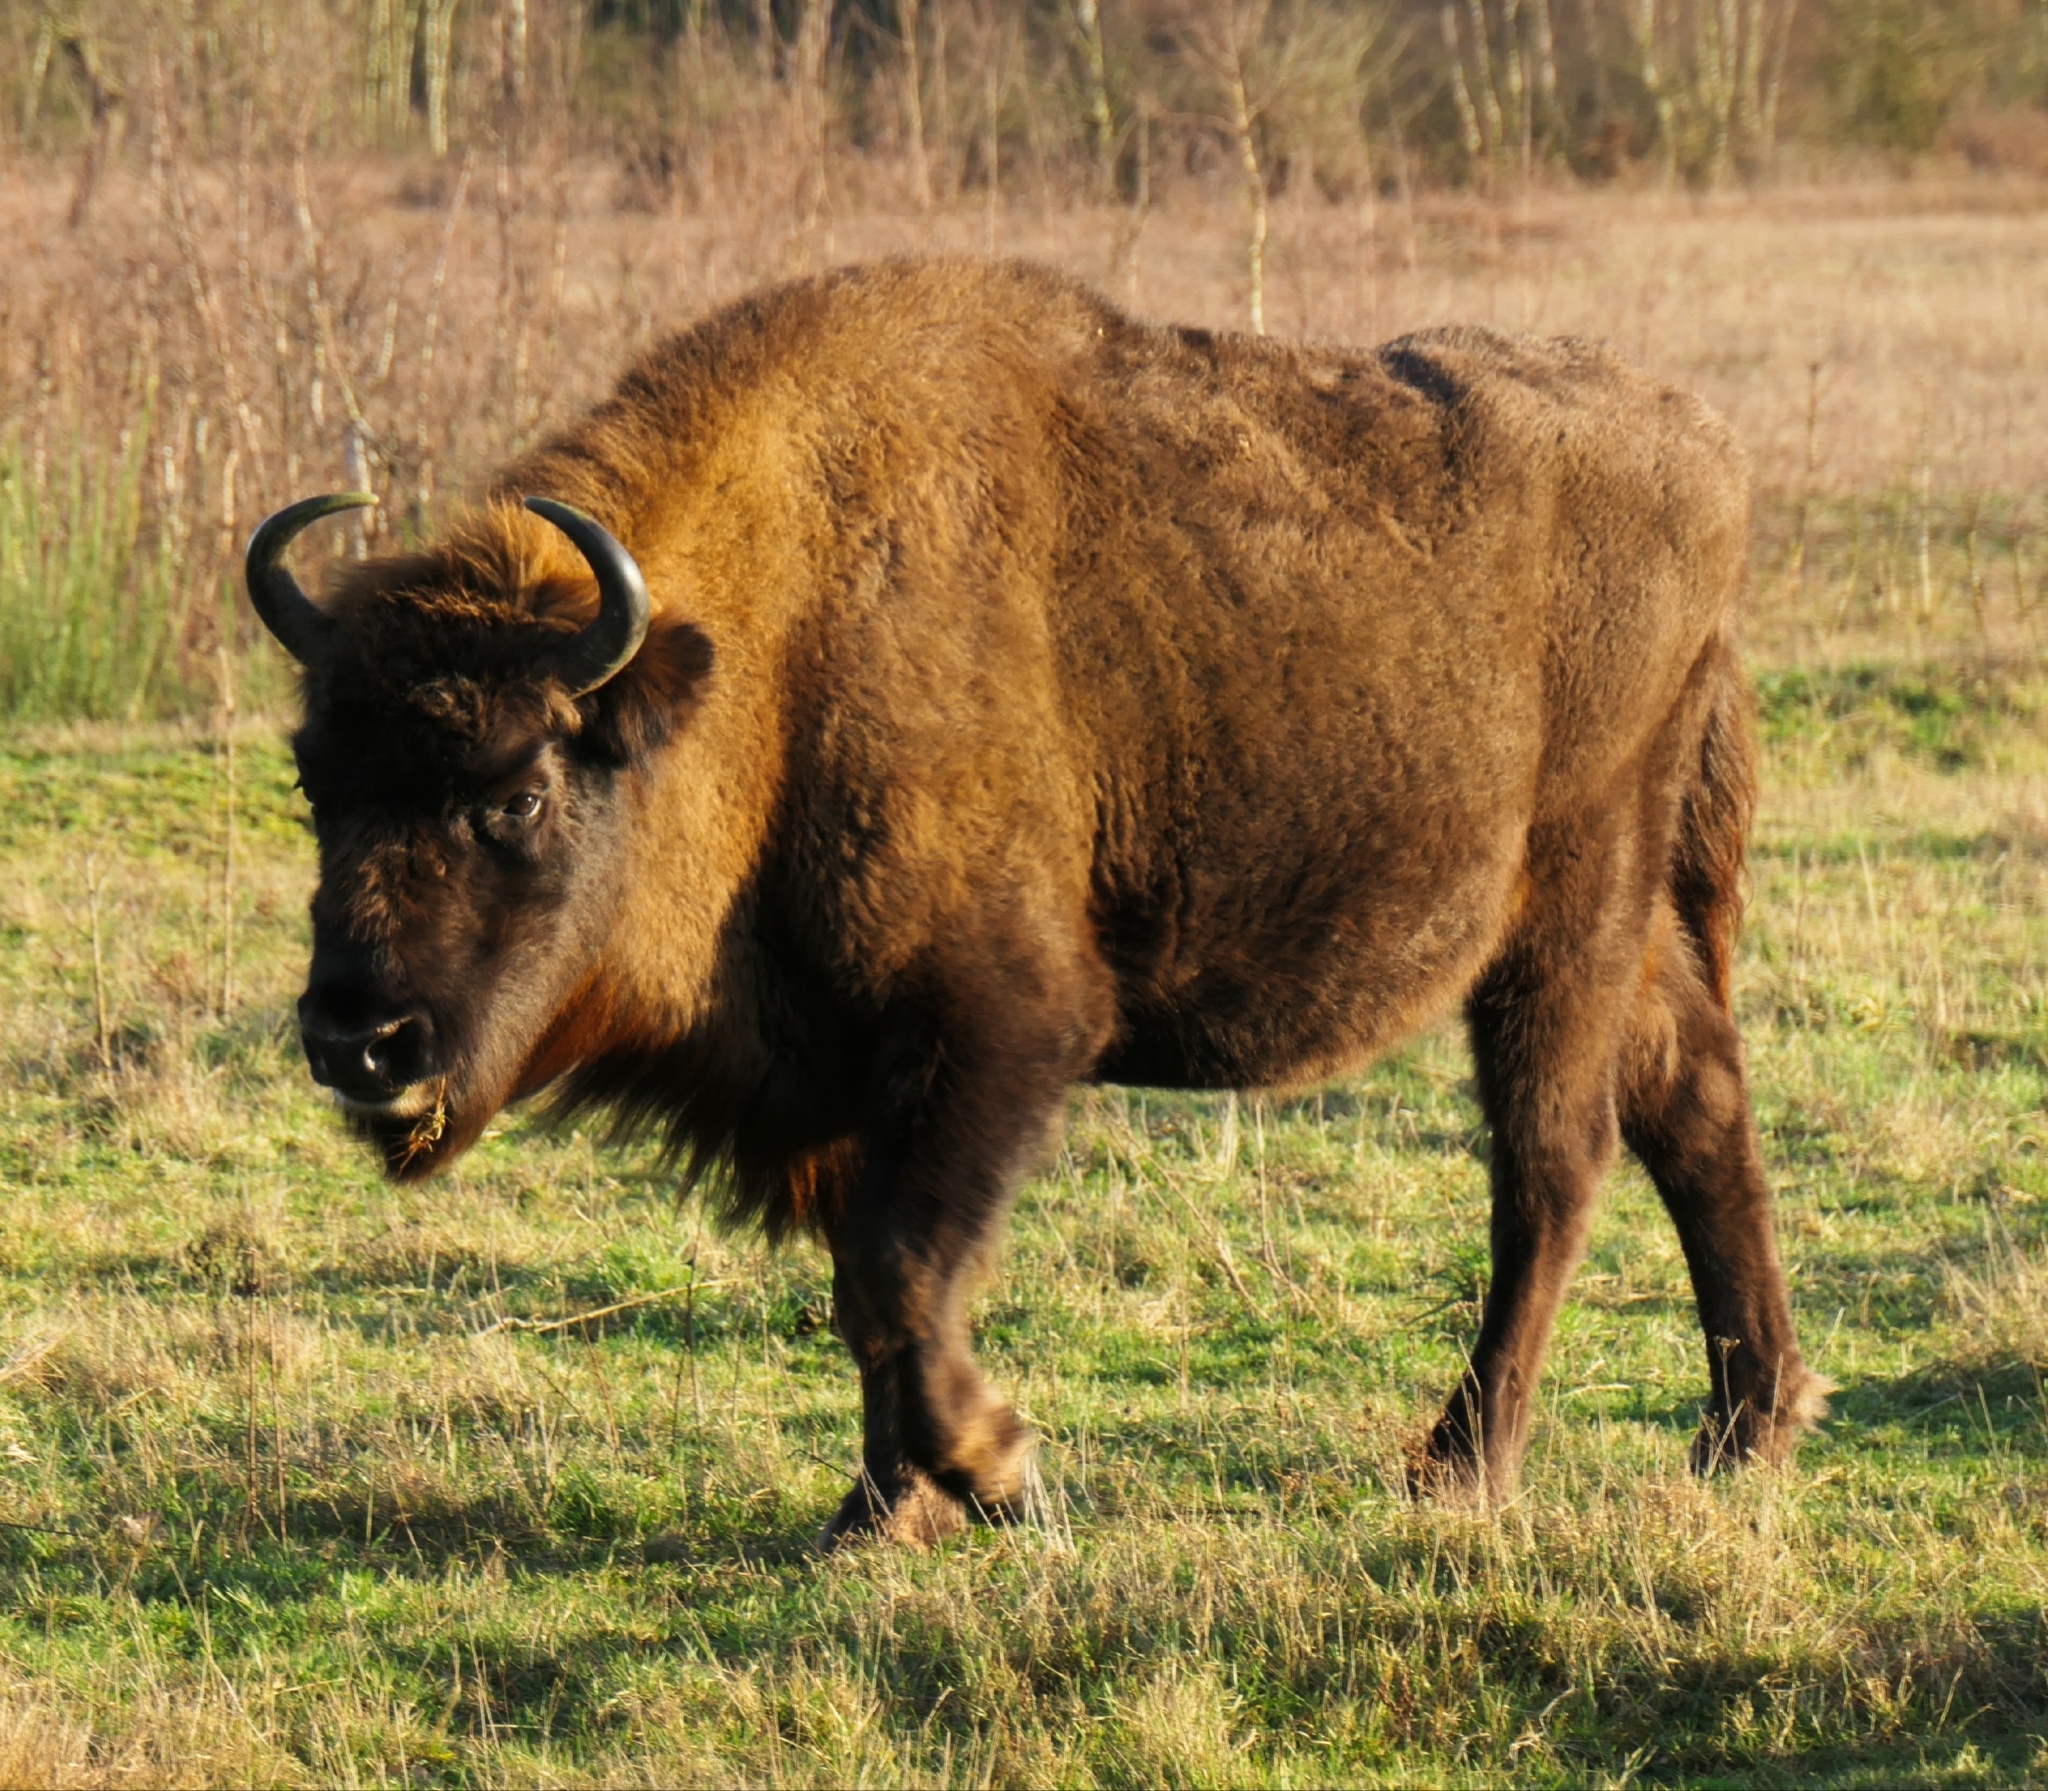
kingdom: Animalia
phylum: Chordata
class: Mammalia
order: Artiodactyla
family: Bovidae
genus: Bison
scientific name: Bison bonasus
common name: European bison
